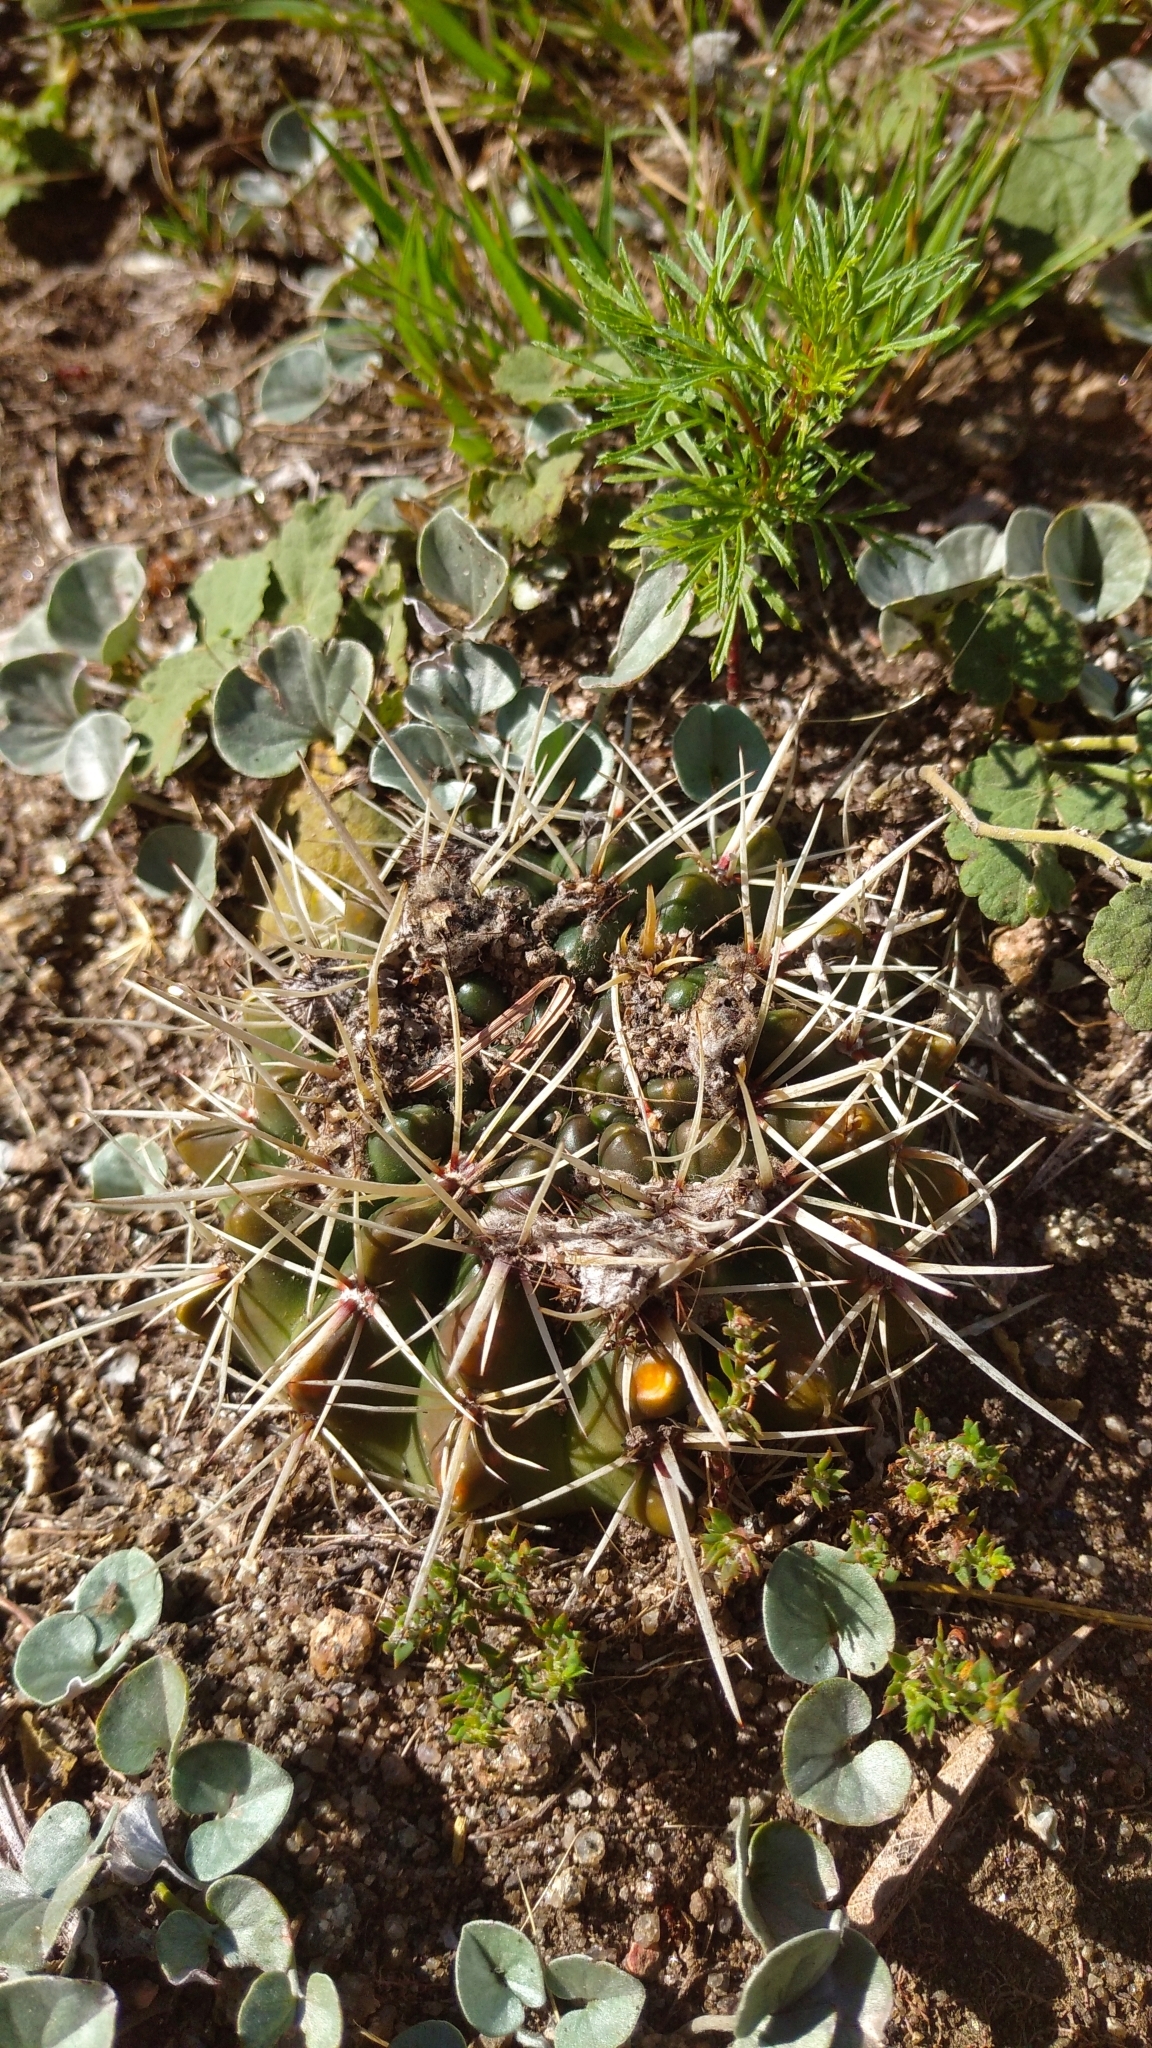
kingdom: Plantae
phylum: Tracheophyta
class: Magnoliopsida
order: Caryophyllales
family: Cactaceae
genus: Parodia
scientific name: Parodia mammulosa
